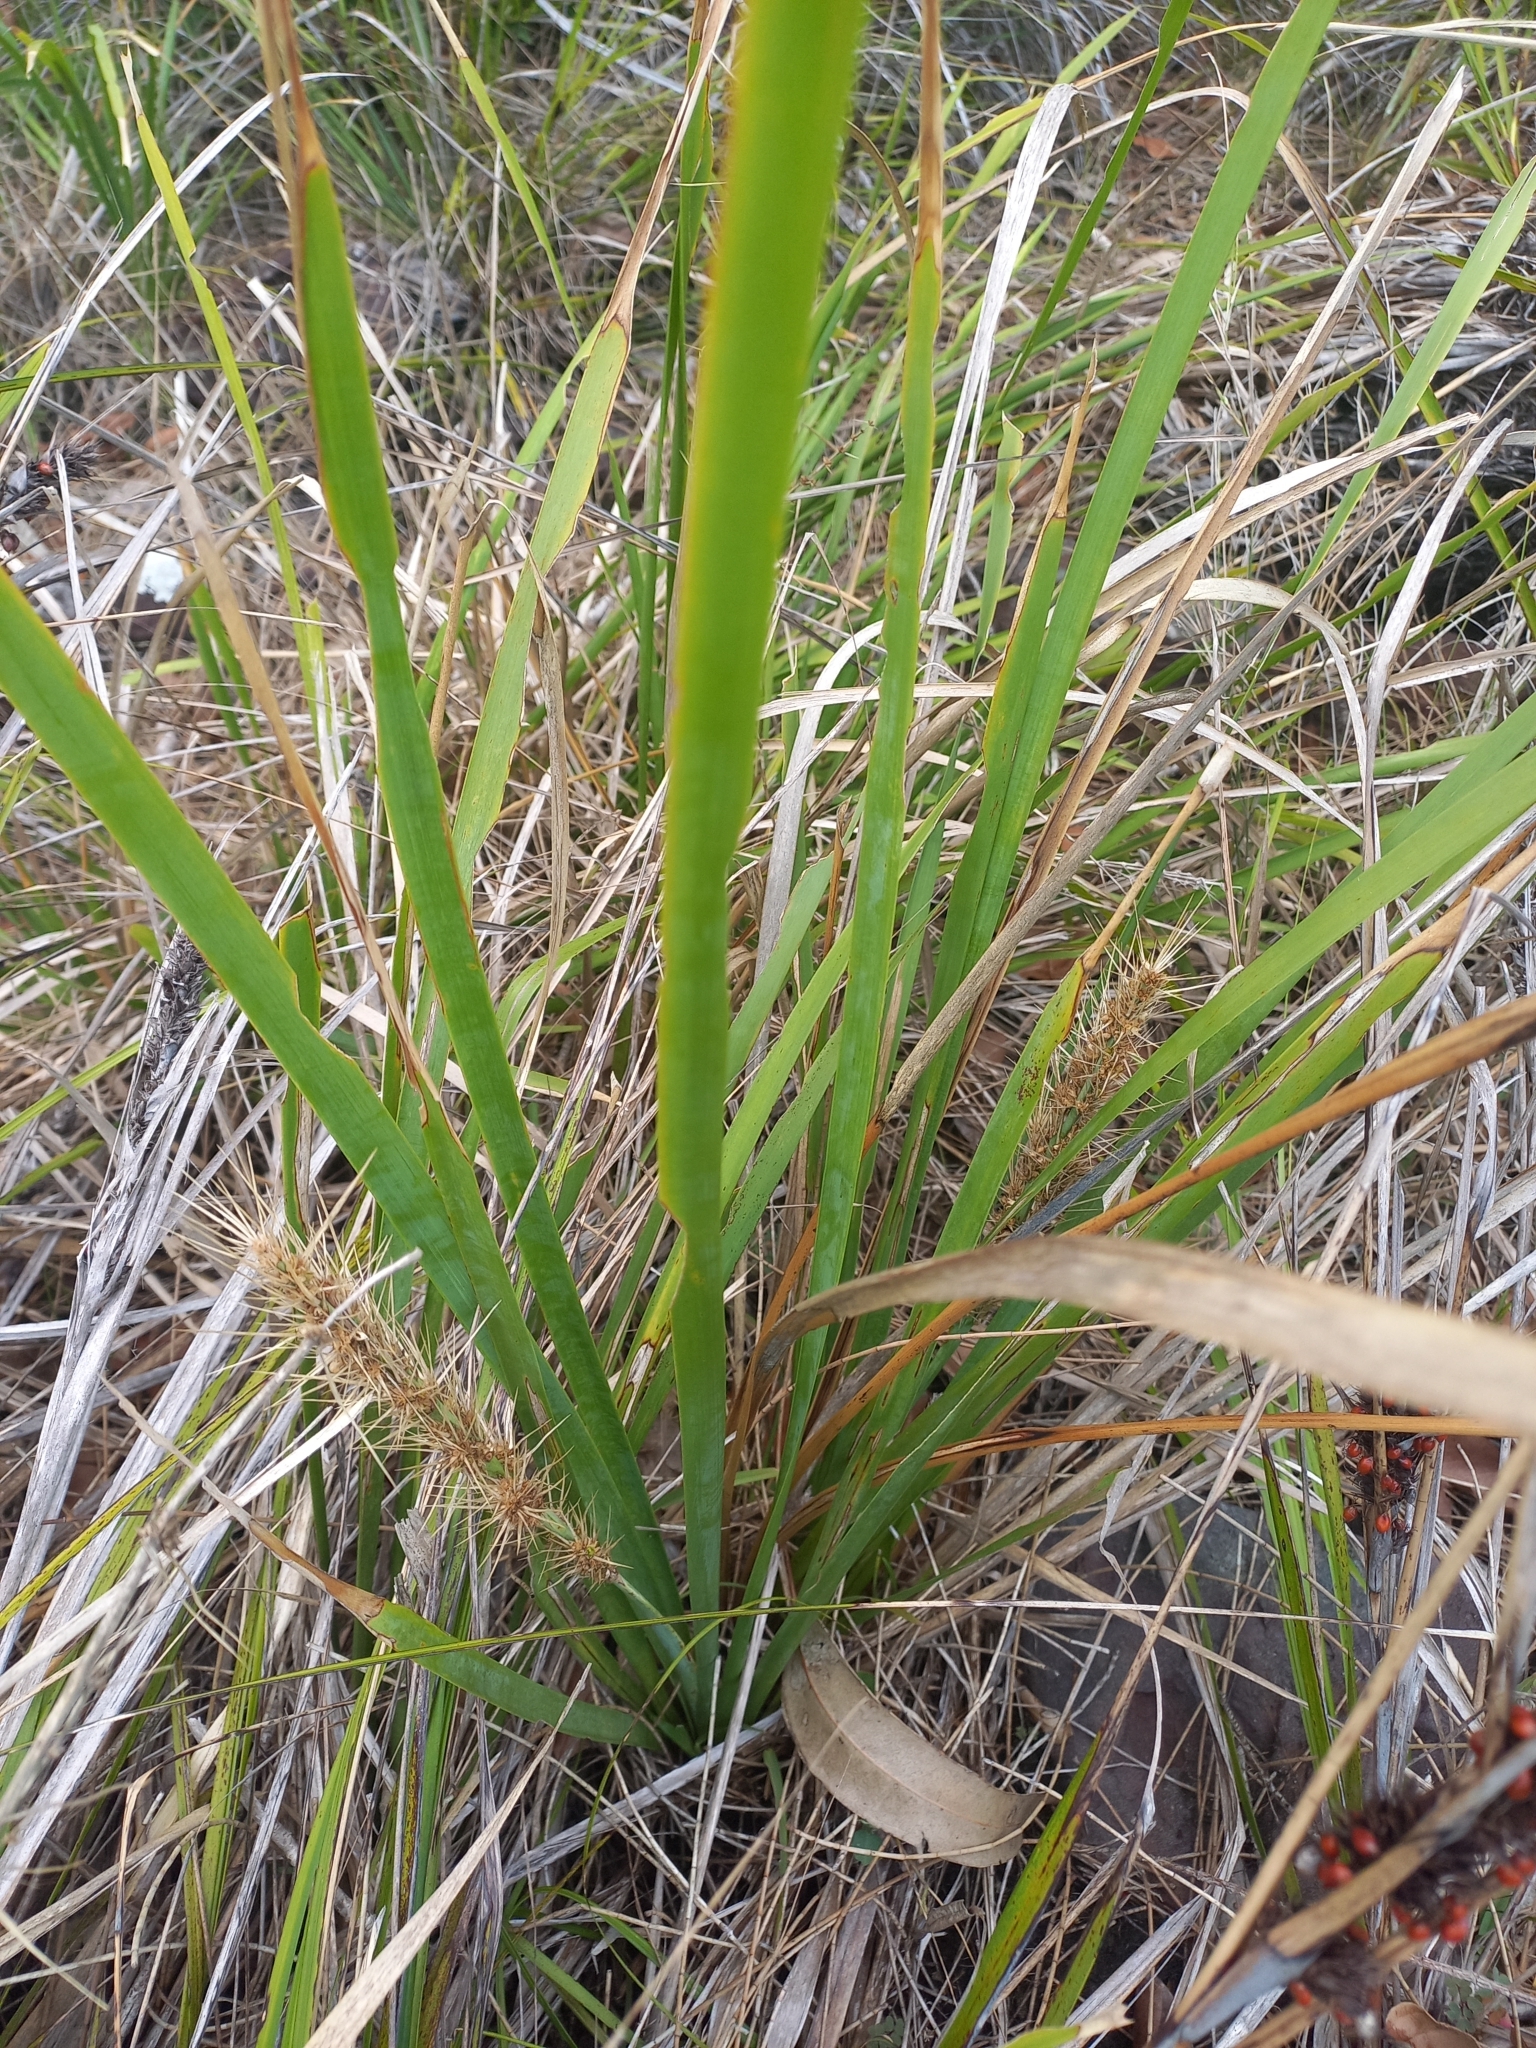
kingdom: Plantae
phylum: Tracheophyta
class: Liliopsida
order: Asparagales
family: Asparagaceae
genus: Lomandra
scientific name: Lomandra longifolia
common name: Longleaf mat-rush
